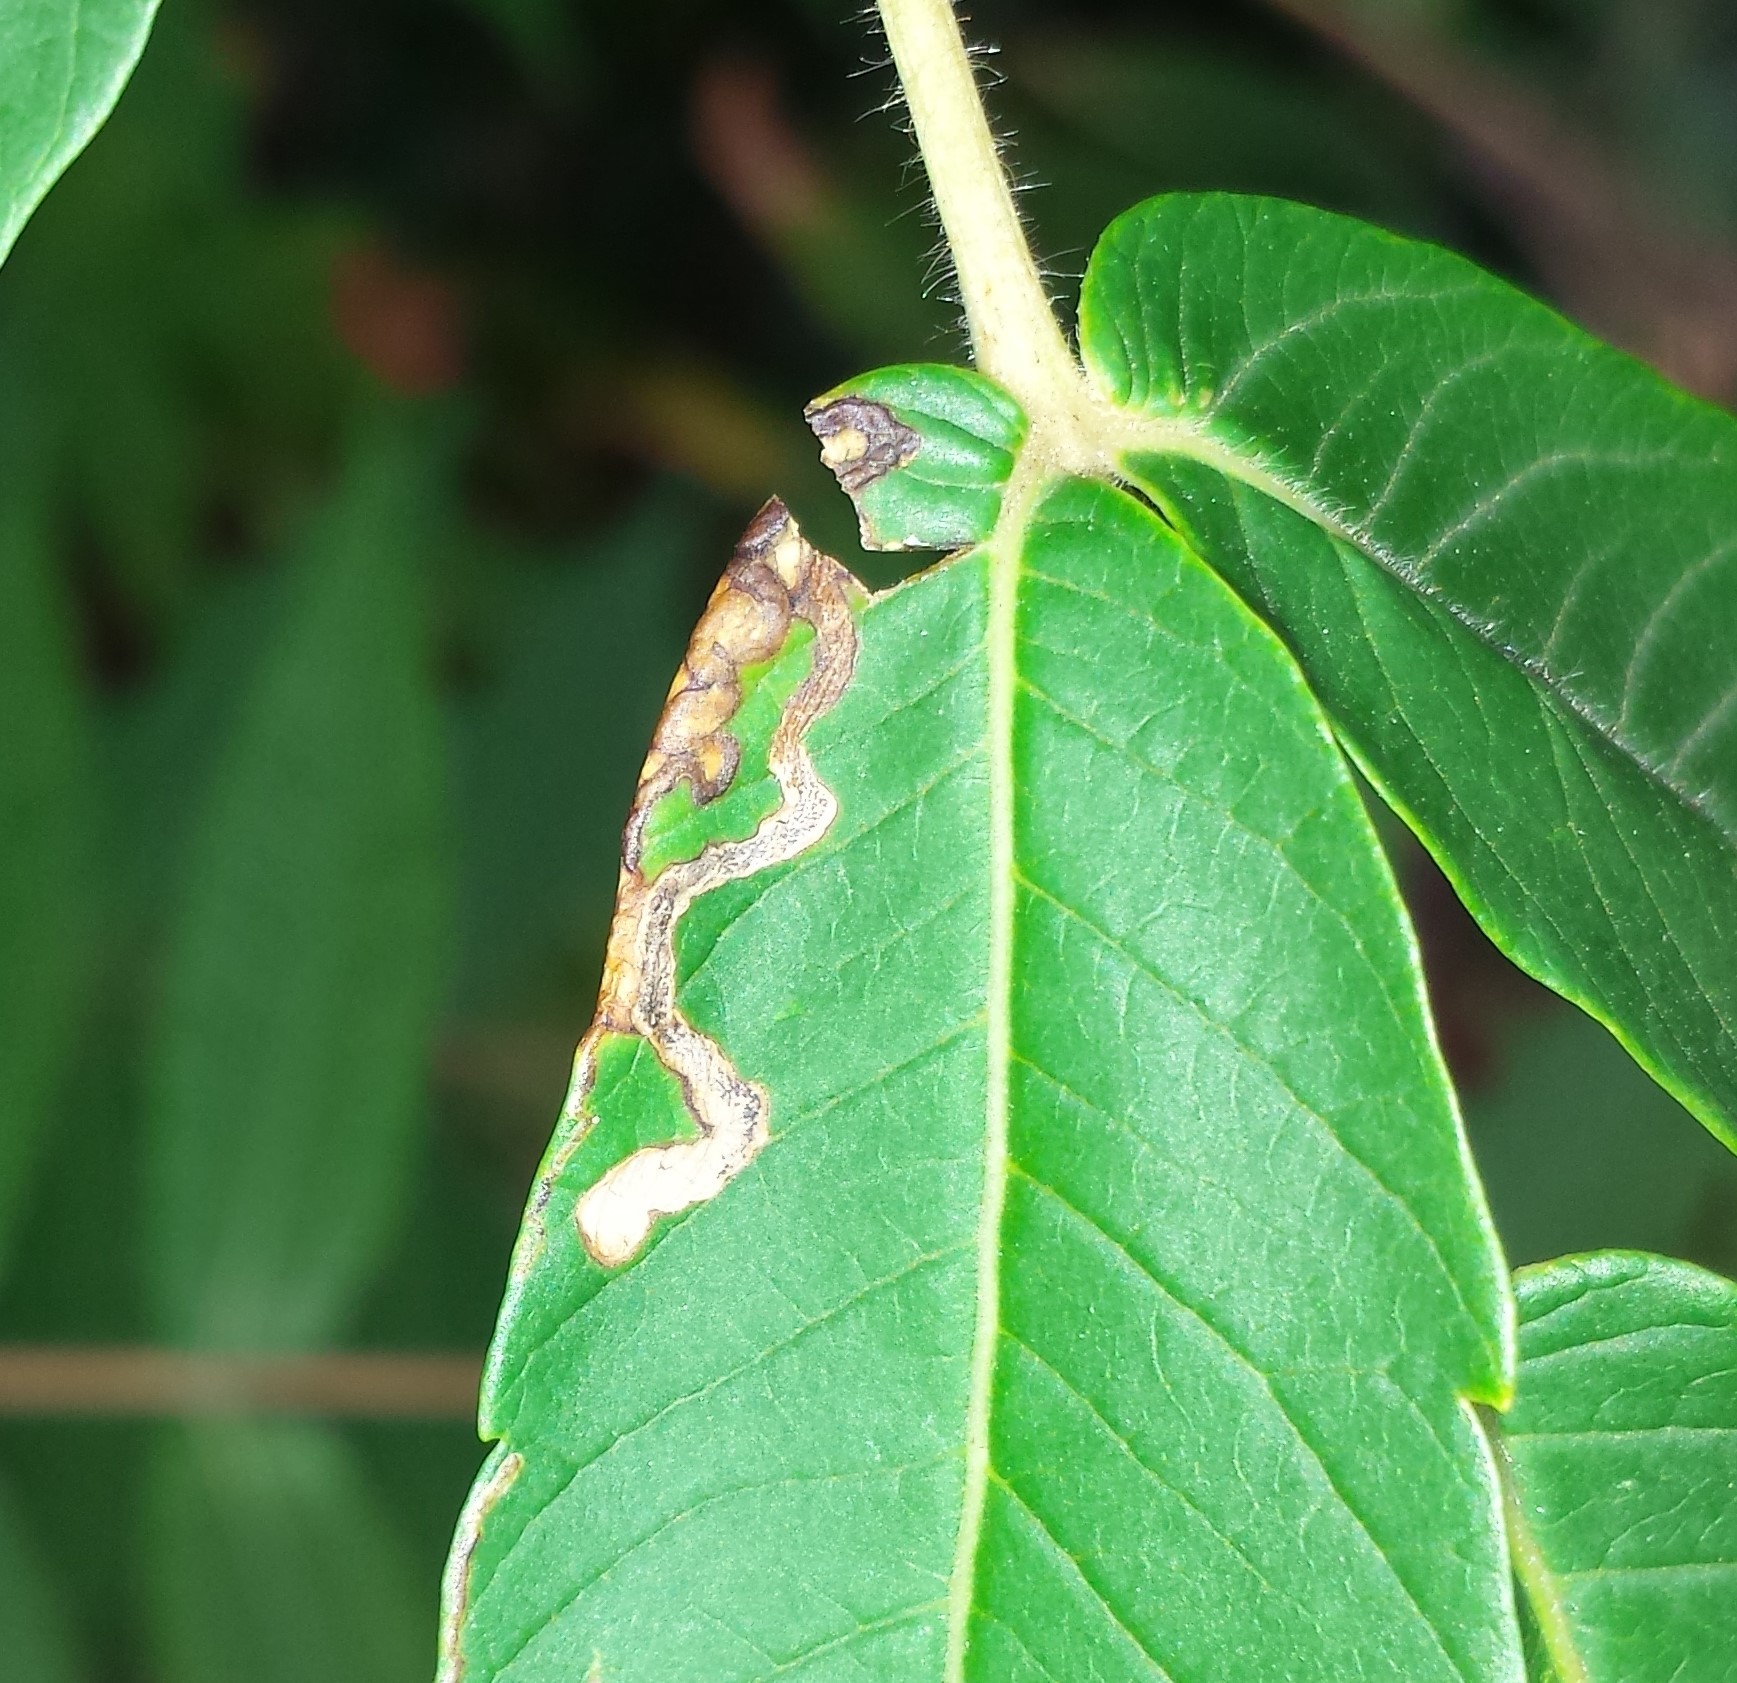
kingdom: Animalia
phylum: Arthropoda
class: Insecta
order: Lepidoptera
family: Nepticulidae
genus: Stigmella
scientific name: Stigmella intermedia
